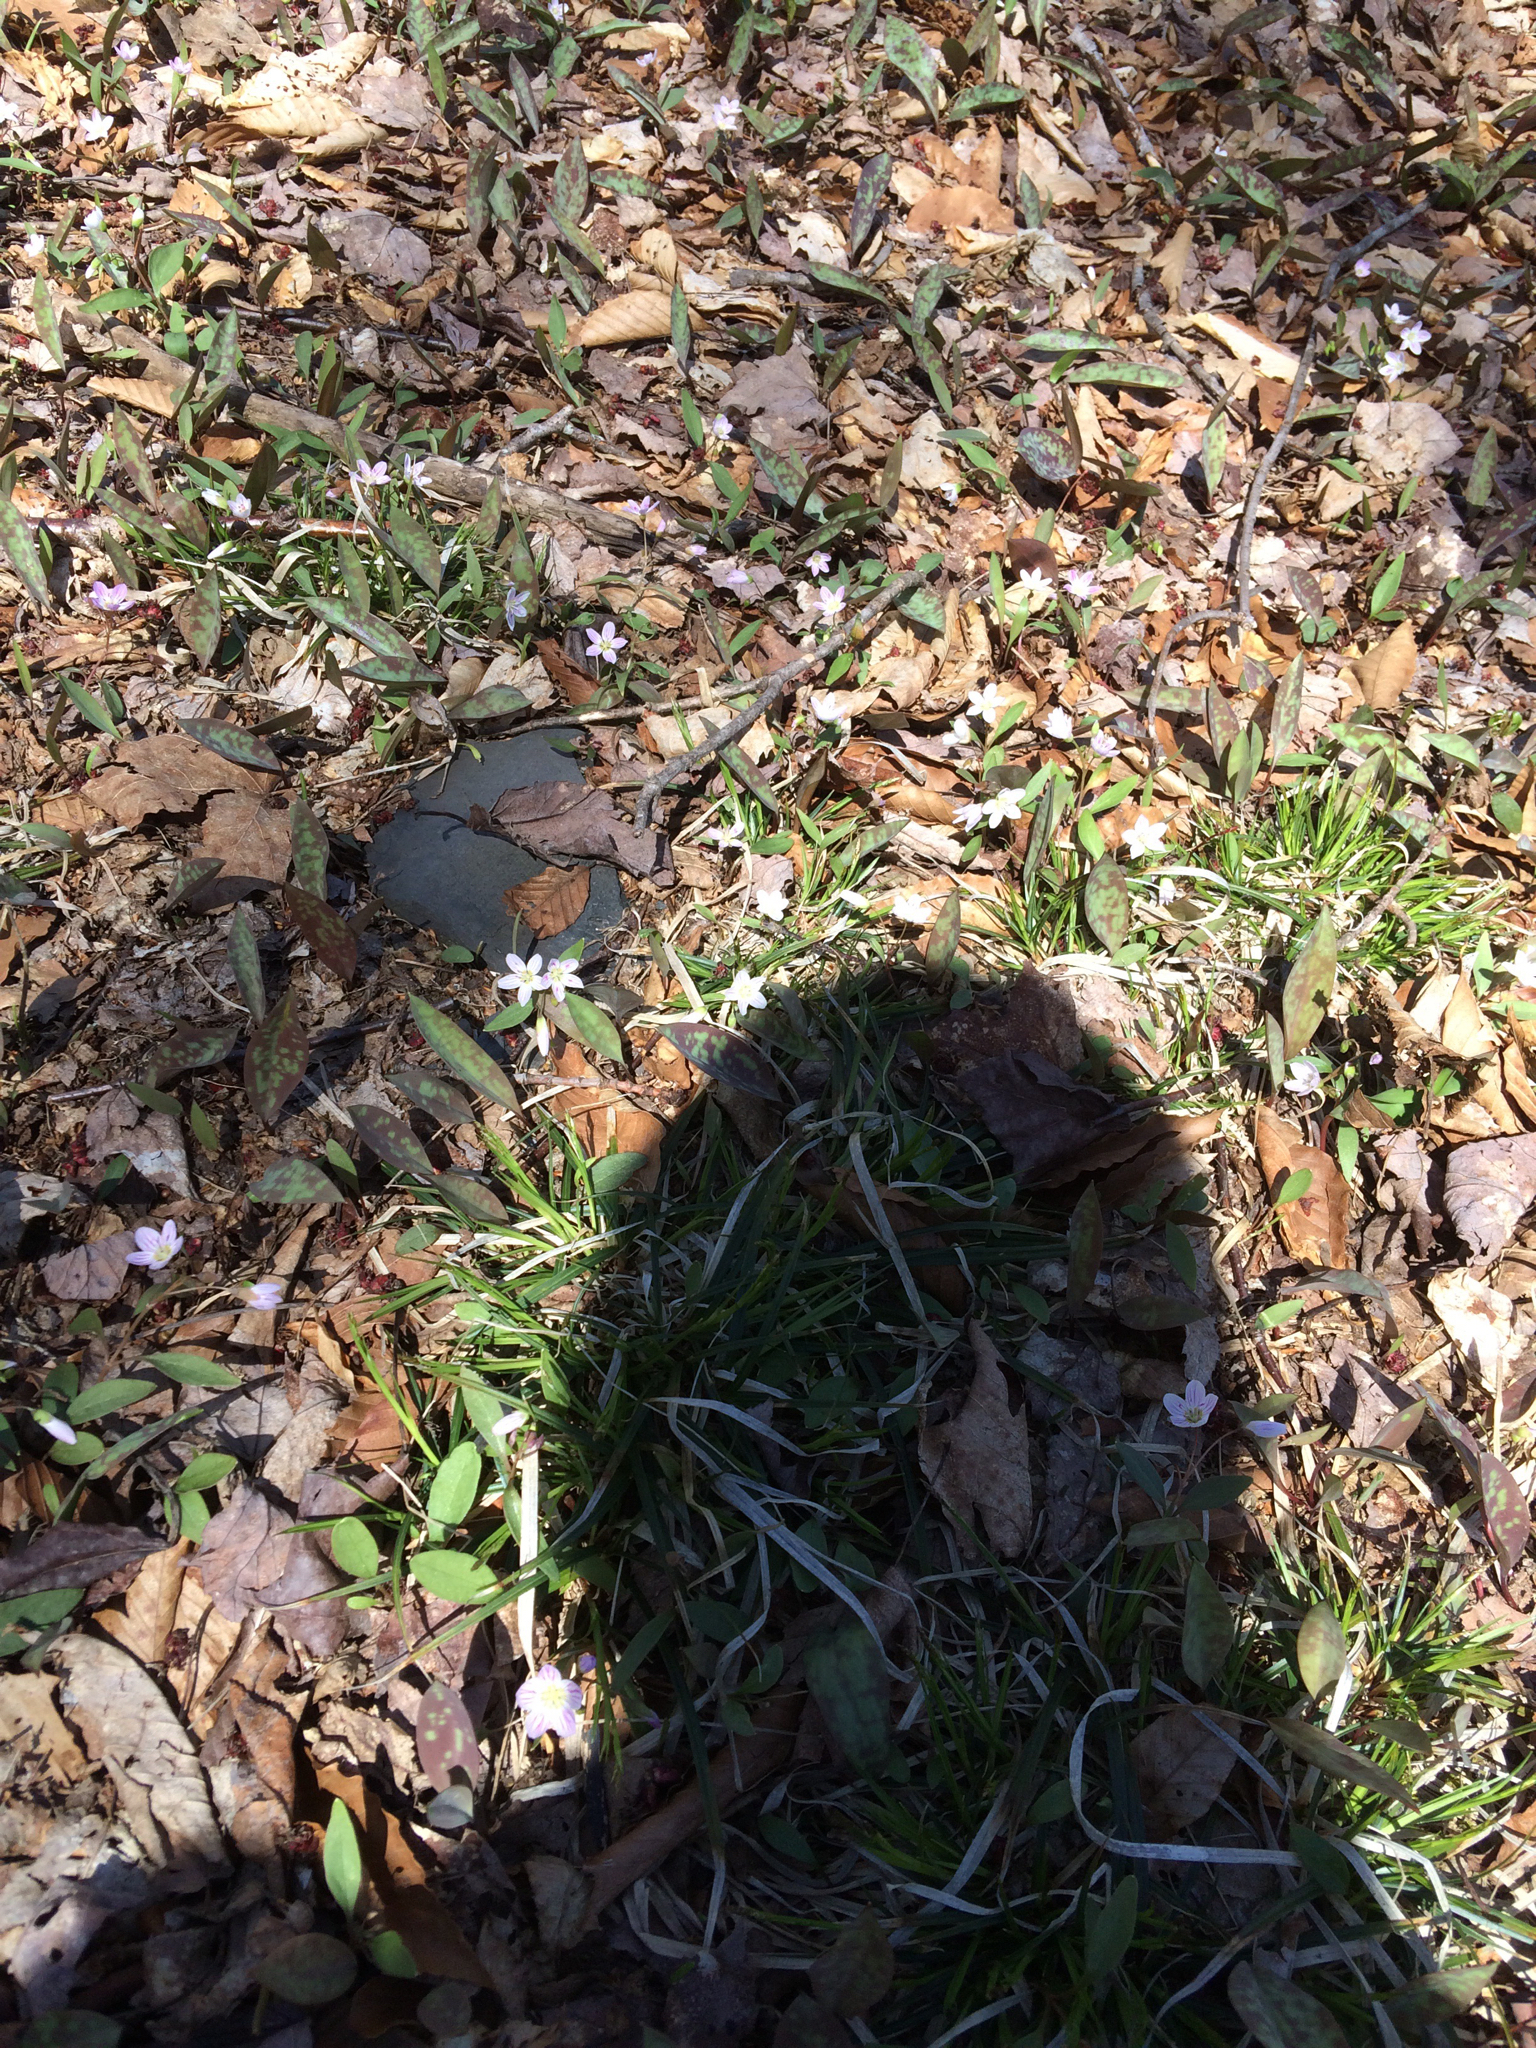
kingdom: Plantae
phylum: Tracheophyta
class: Magnoliopsida
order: Caryophyllales
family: Montiaceae
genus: Claytonia
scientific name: Claytonia caroliniana
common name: Carolina spring beauty
